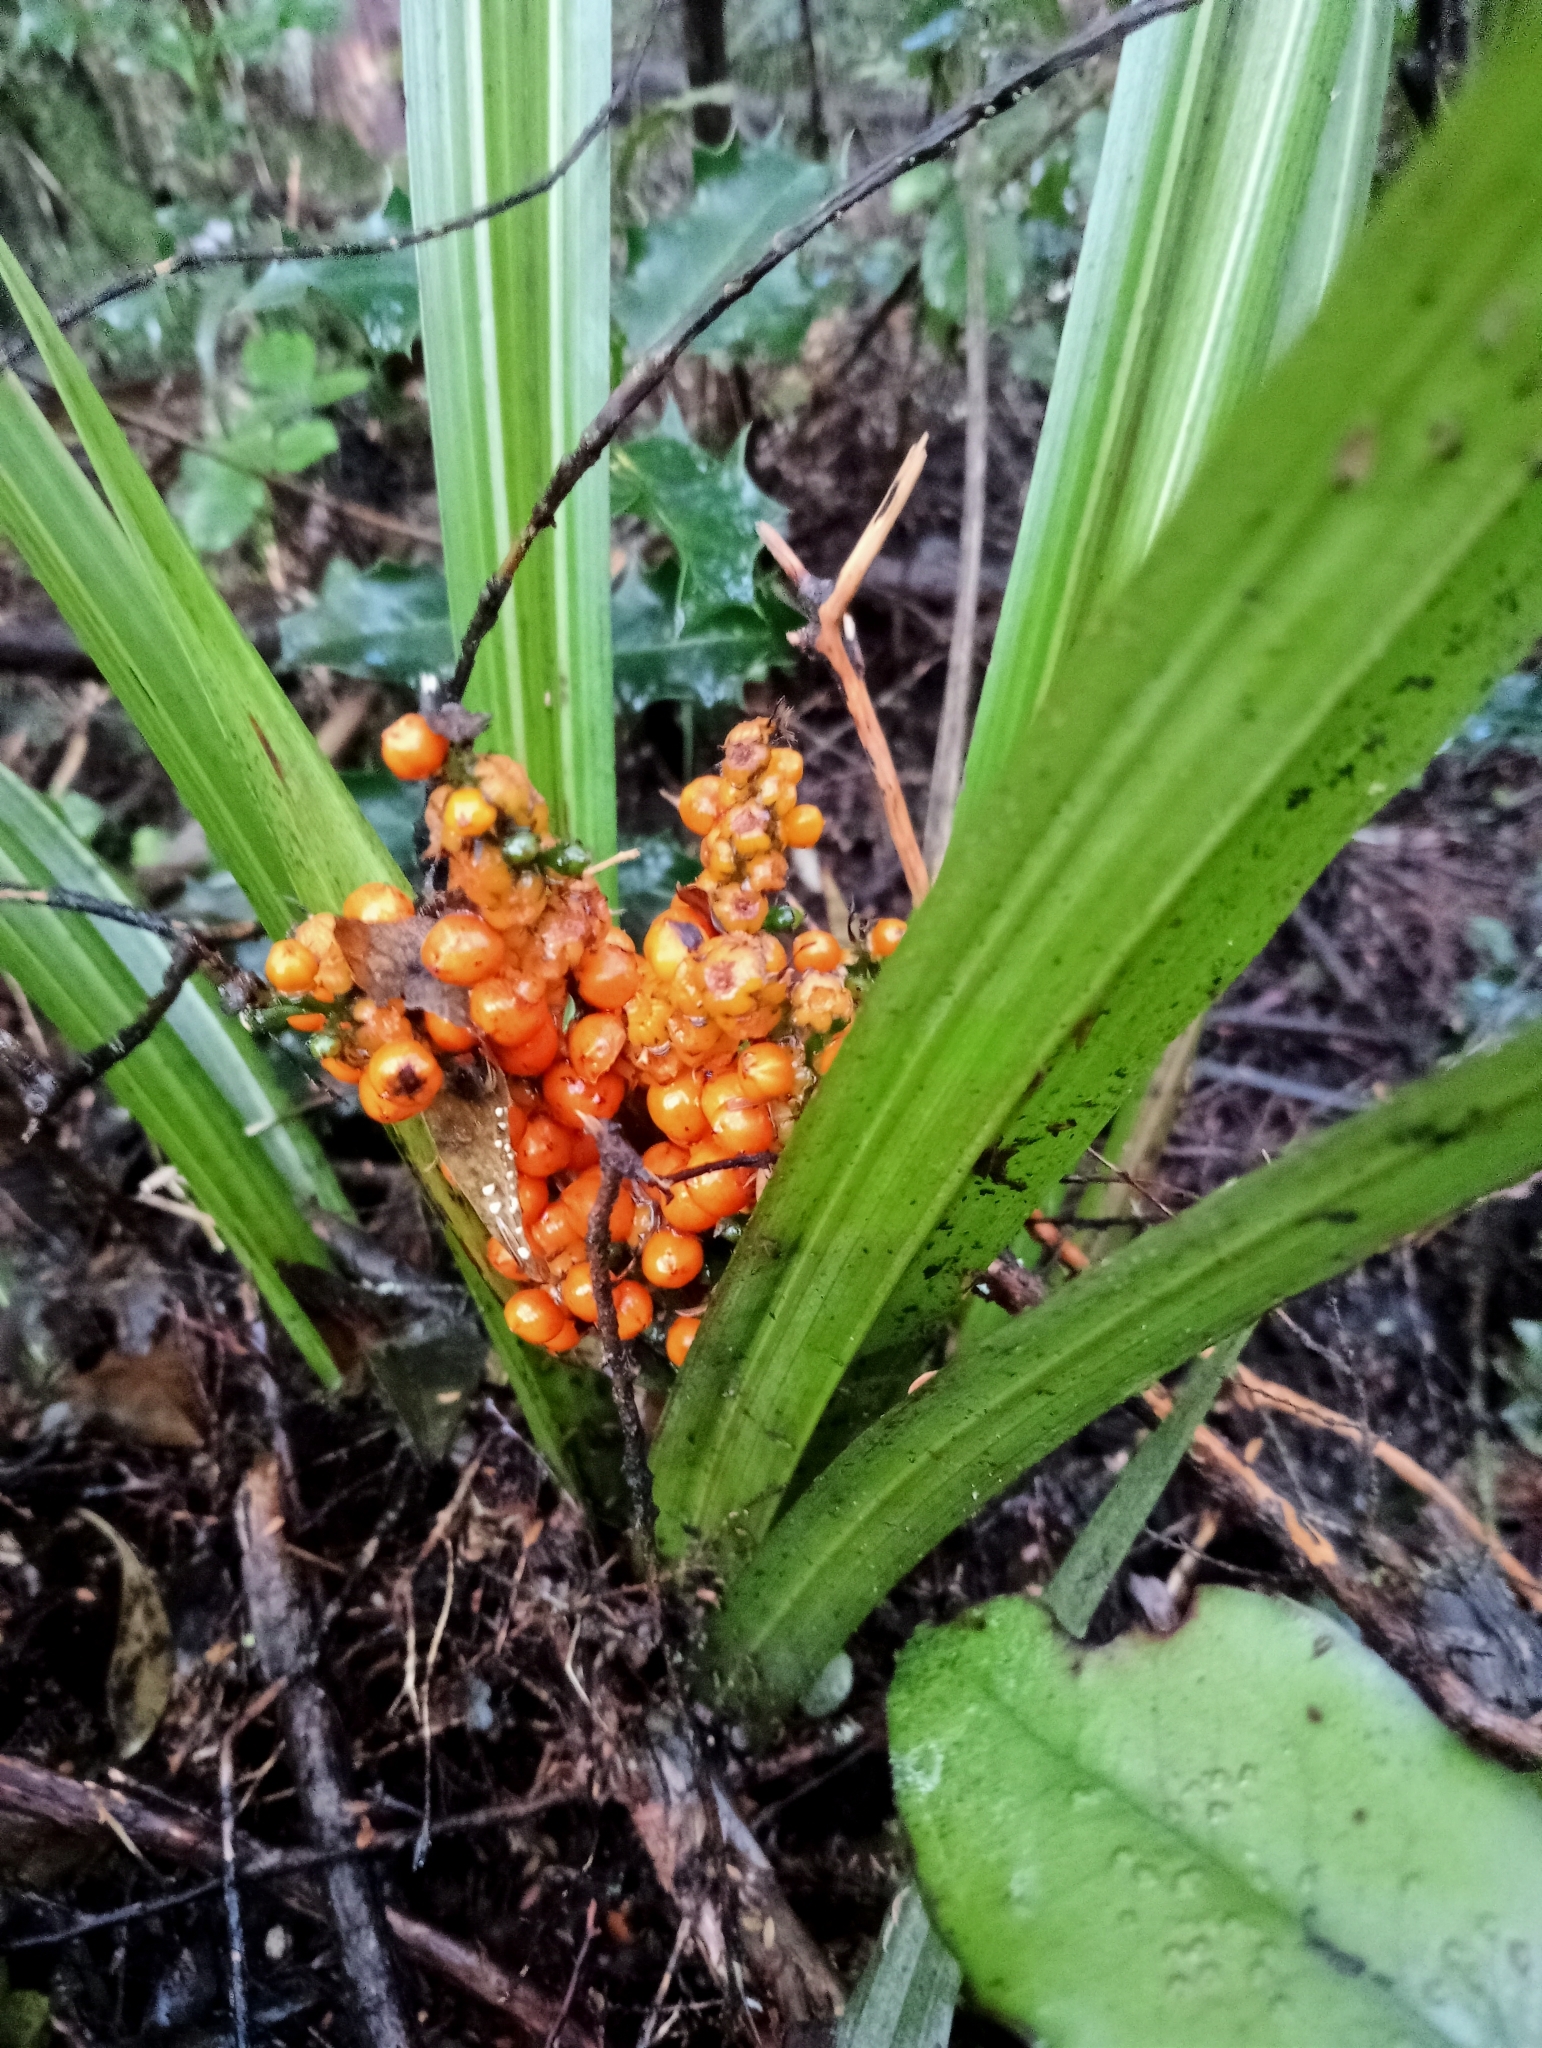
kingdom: Plantae
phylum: Tracheophyta
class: Liliopsida
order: Asparagales
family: Asteliaceae
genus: Astelia
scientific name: Astelia fragrans
